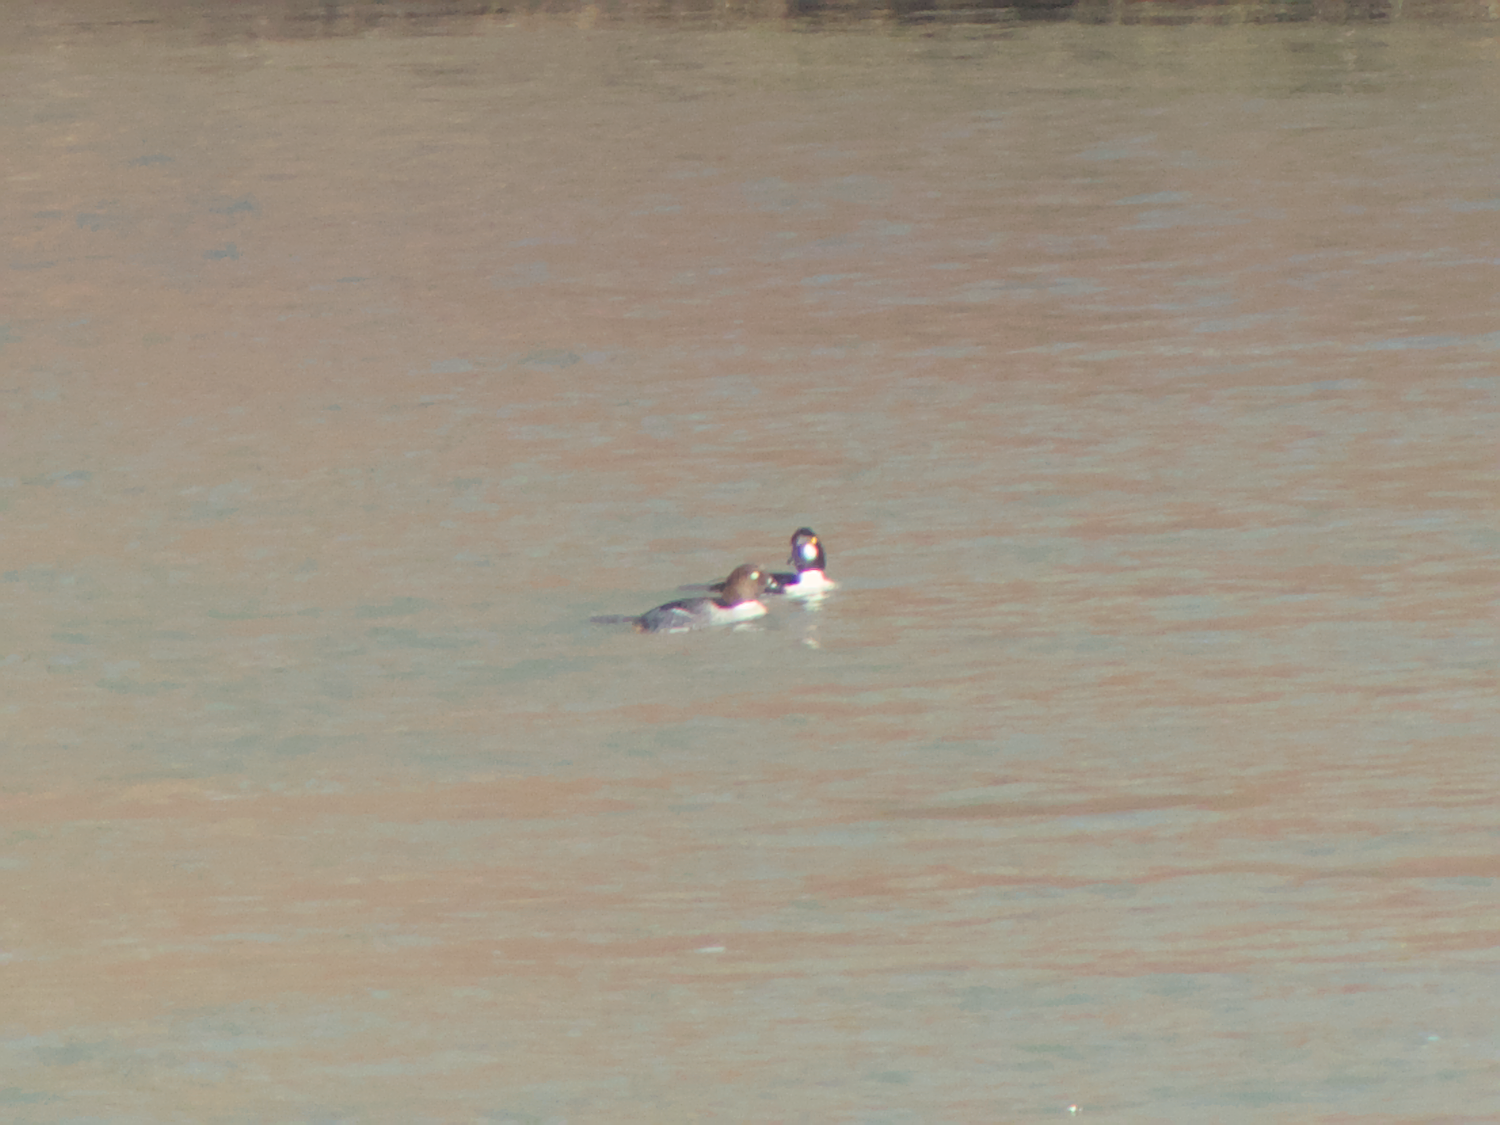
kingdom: Animalia
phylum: Chordata
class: Aves
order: Anseriformes
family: Anatidae
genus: Bucephala
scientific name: Bucephala clangula
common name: Common goldeneye
